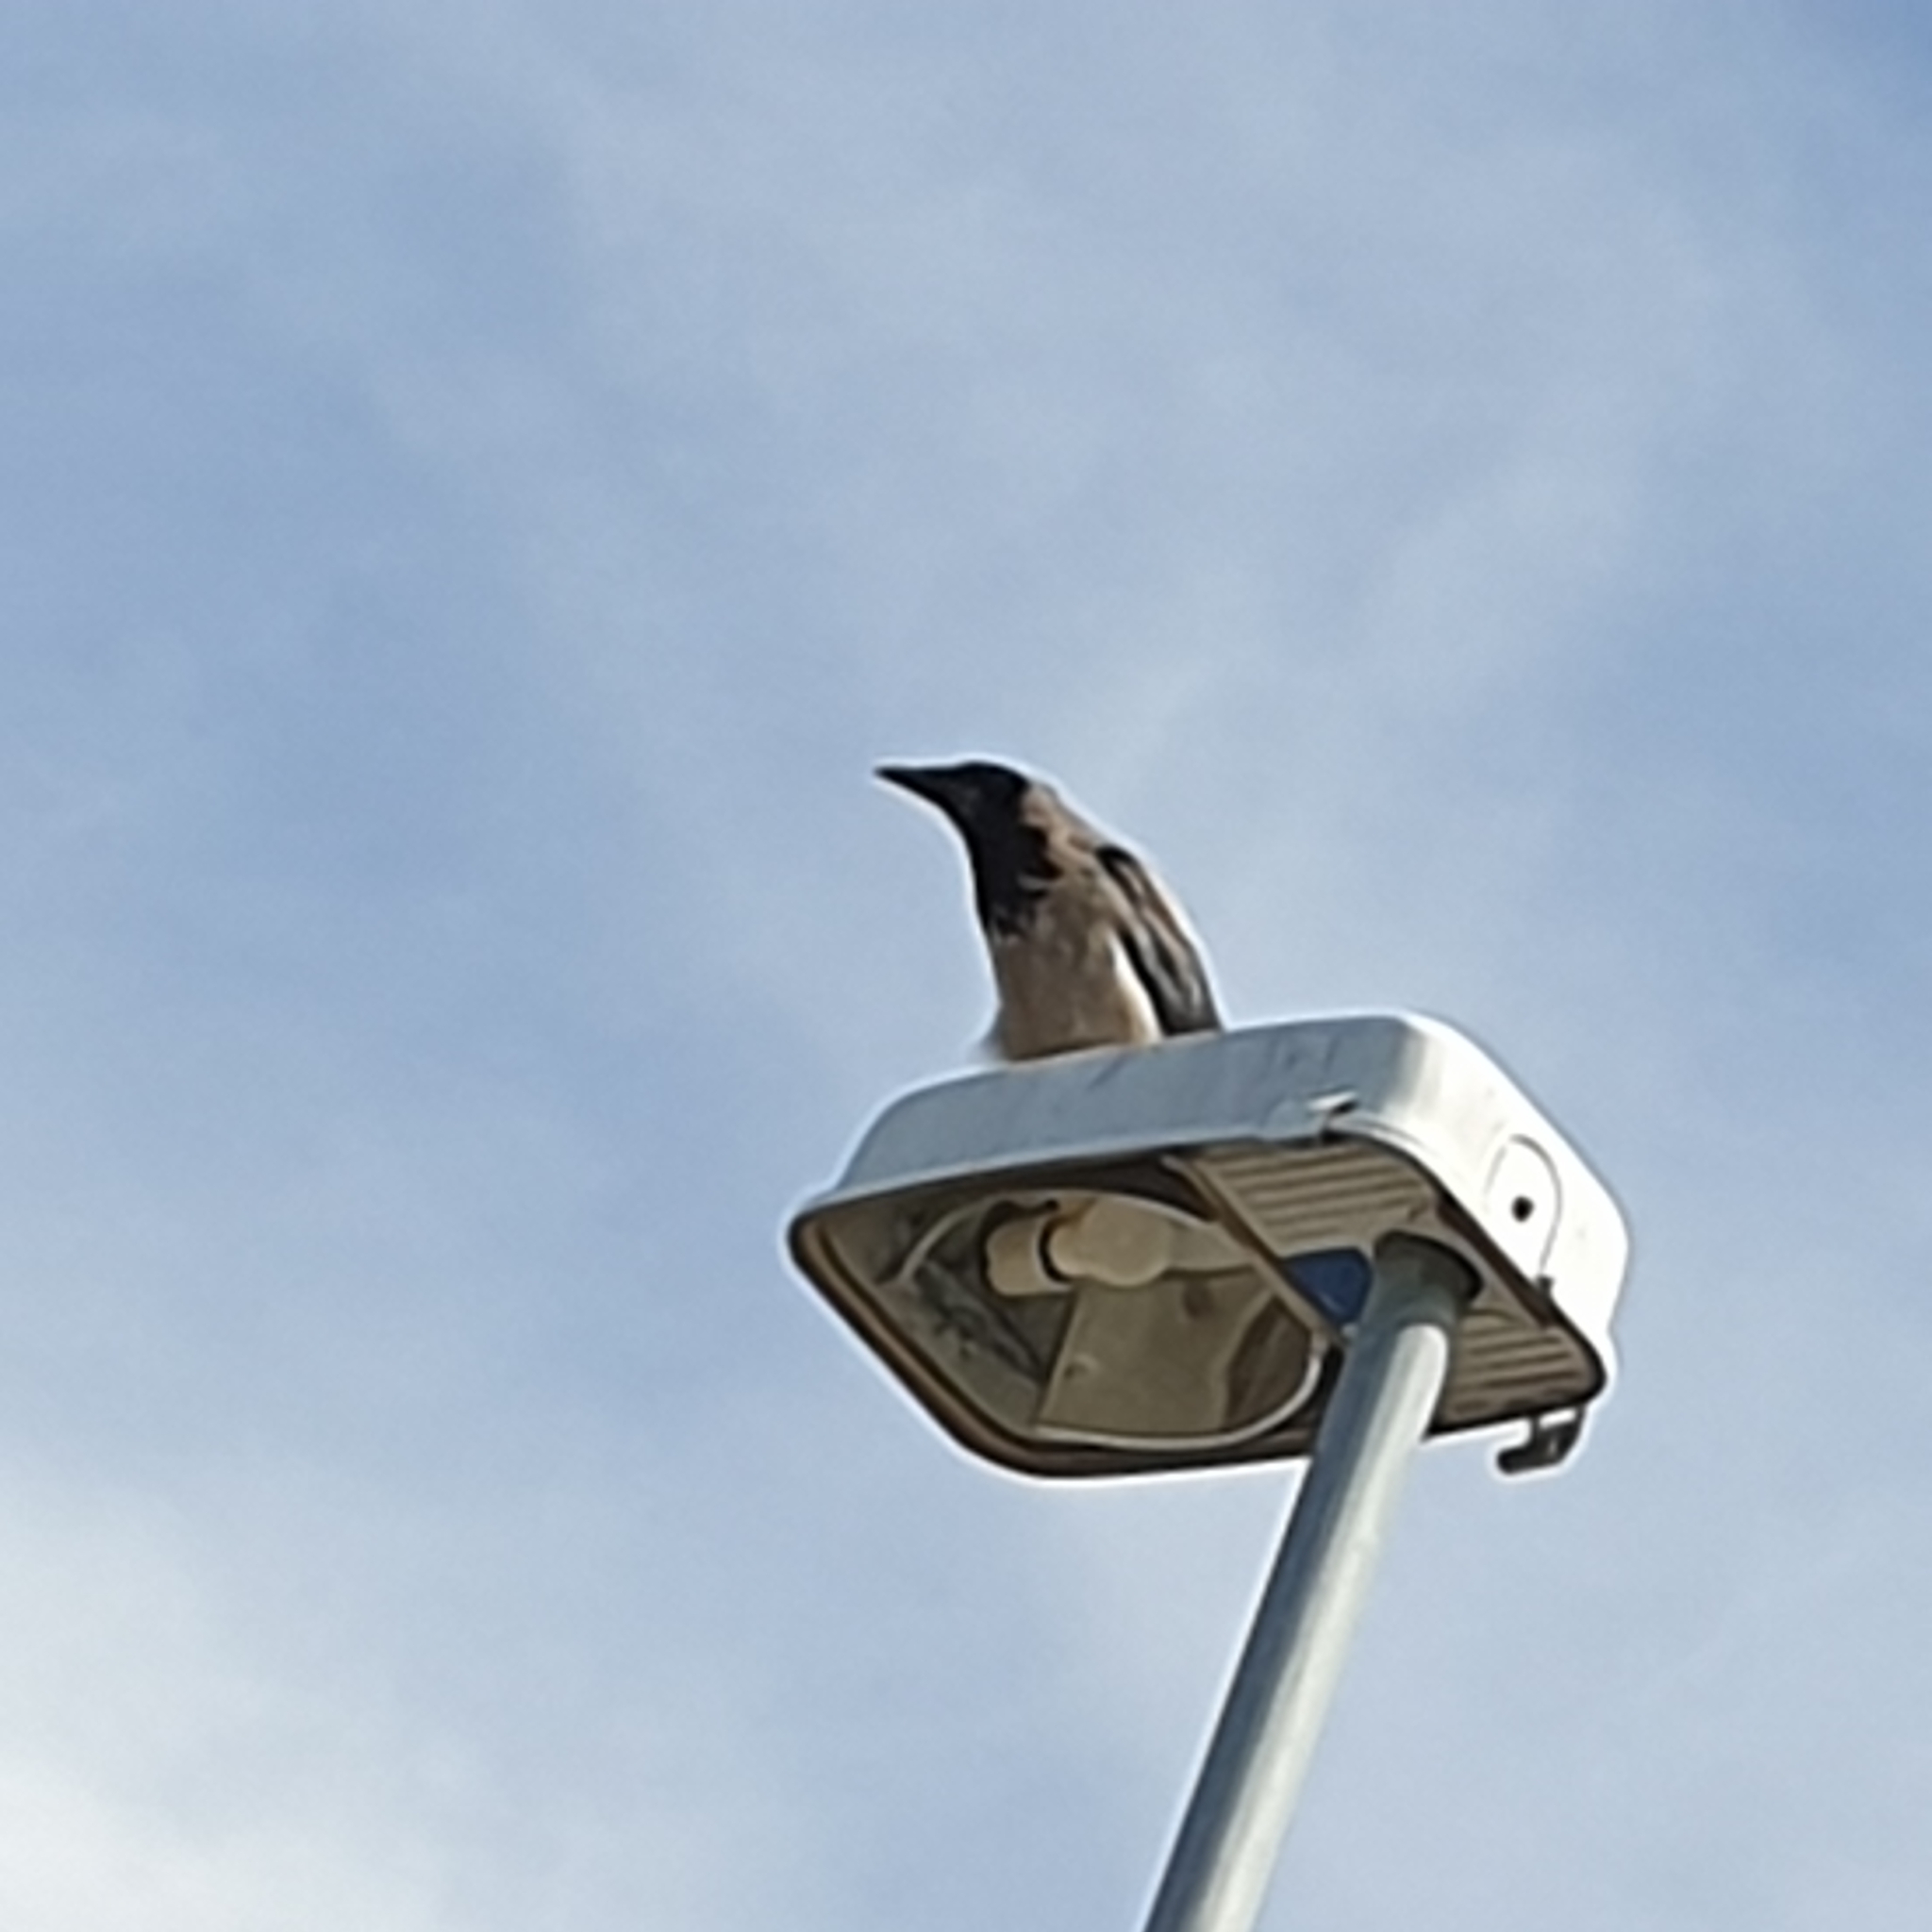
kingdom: Animalia
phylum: Chordata
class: Aves
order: Passeriformes
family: Corvidae
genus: Corvus
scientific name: Corvus cornix
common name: Hooded crow
